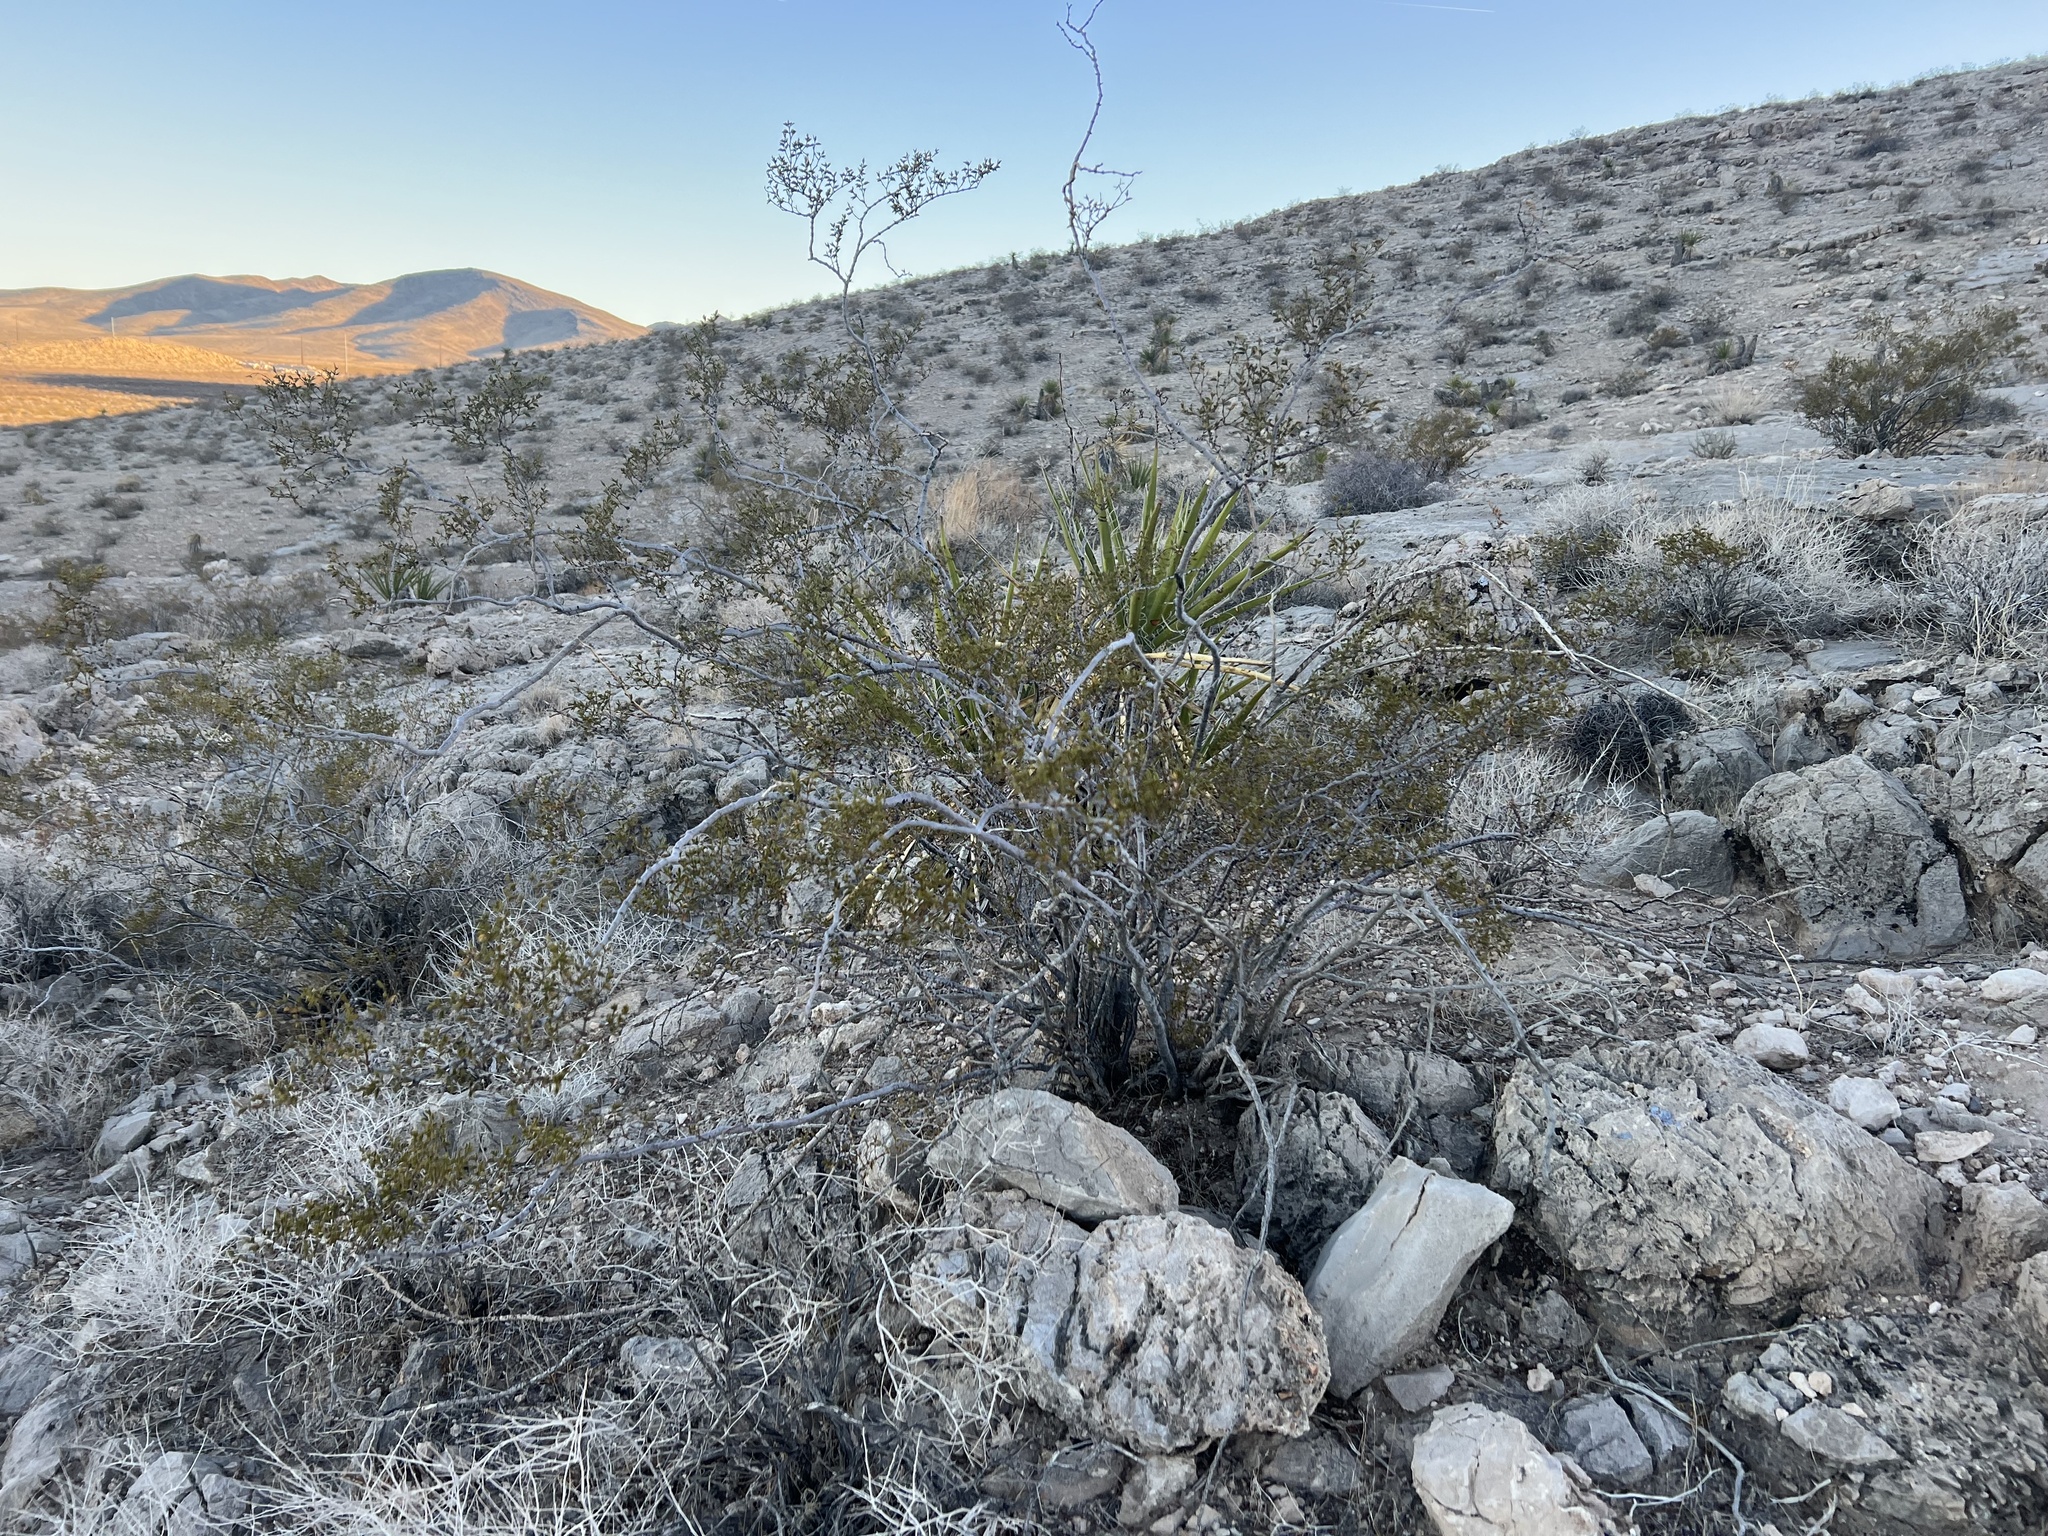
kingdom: Plantae
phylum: Tracheophyta
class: Magnoliopsida
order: Zygophyllales
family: Zygophyllaceae
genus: Larrea
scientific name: Larrea tridentata
